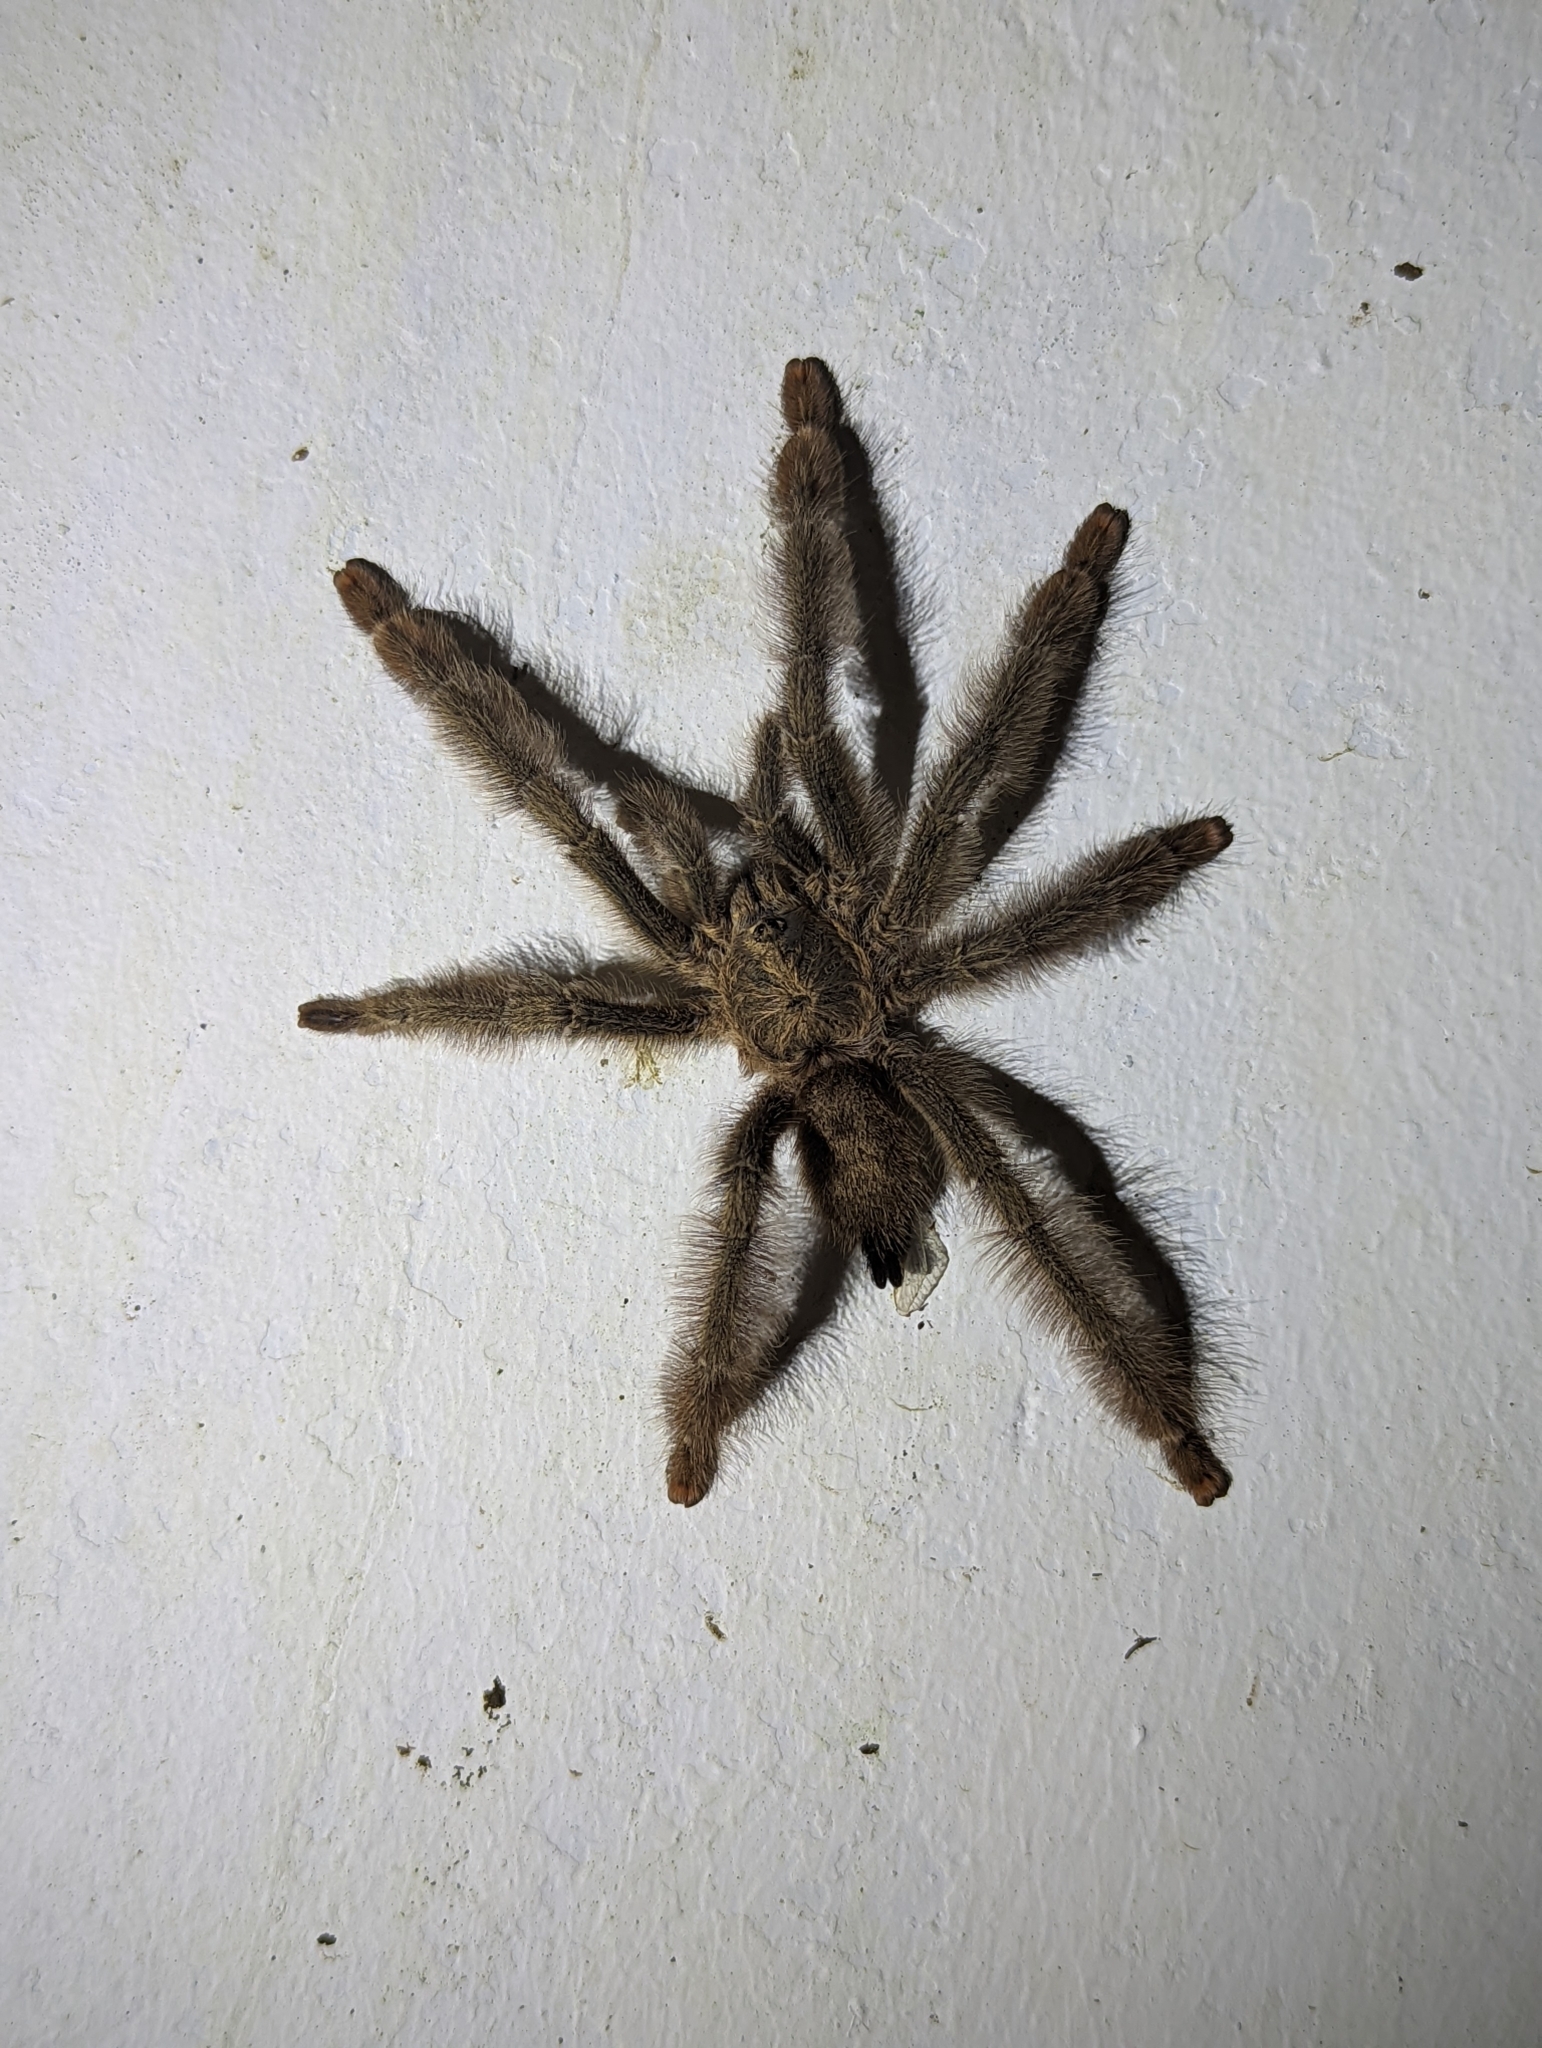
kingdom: Animalia
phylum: Arthropoda
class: Arachnida
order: Araneae
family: Theraphosidae
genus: Psalmopoeus
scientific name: Psalmopoeus pulcher
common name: Tarantula spiders
